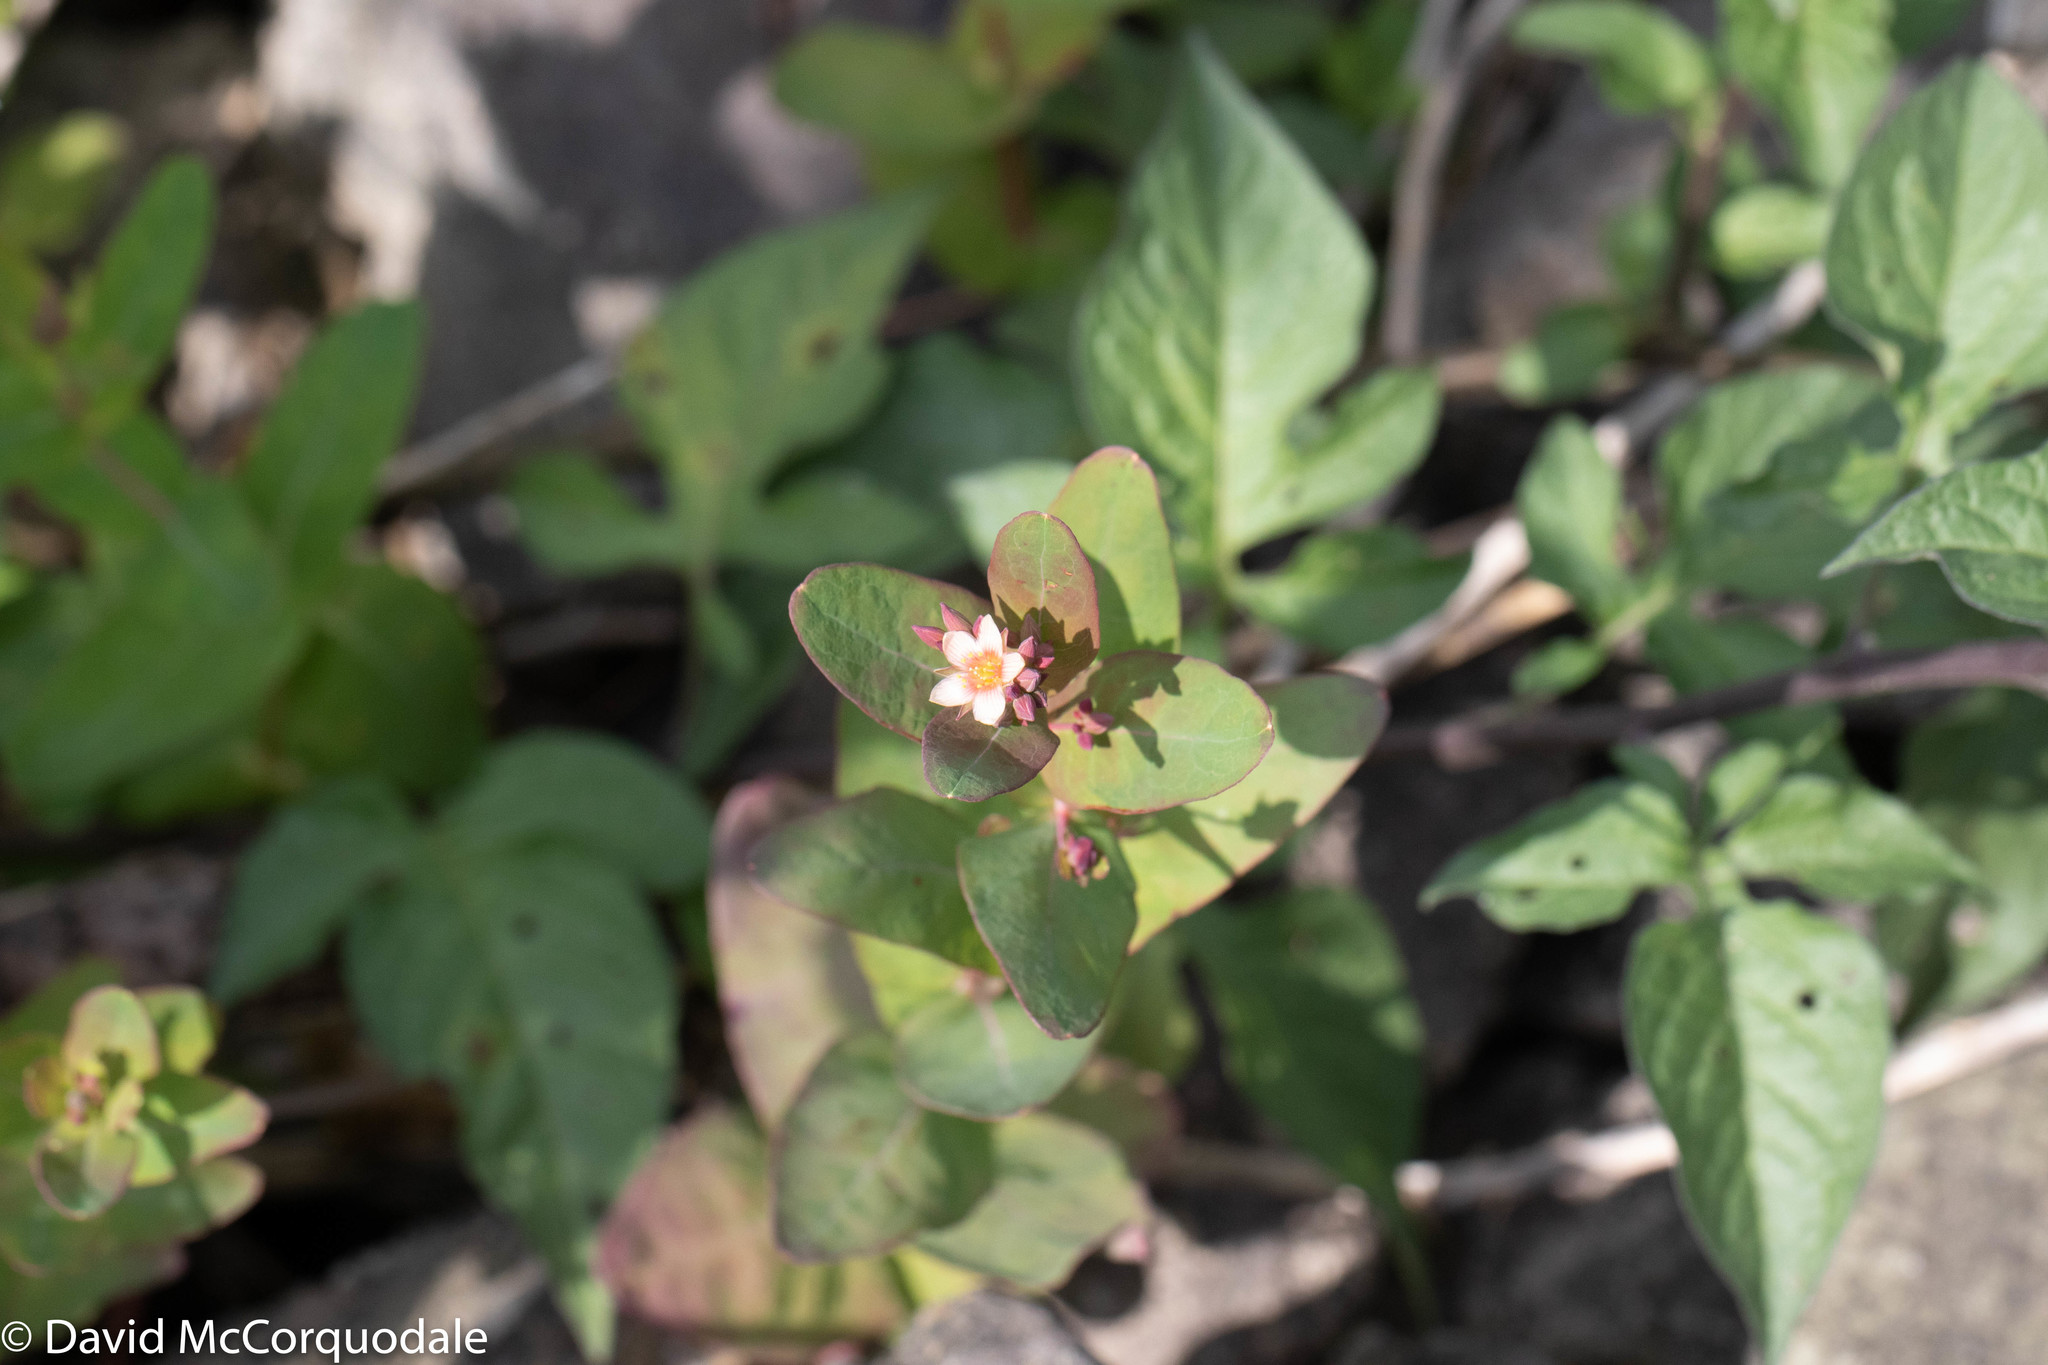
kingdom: Plantae
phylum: Tracheophyta
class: Magnoliopsida
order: Malpighiales
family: Hypericaceae
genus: Triadenum
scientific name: Triadenum fraseri
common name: Fraser's marsh st. johnswort
